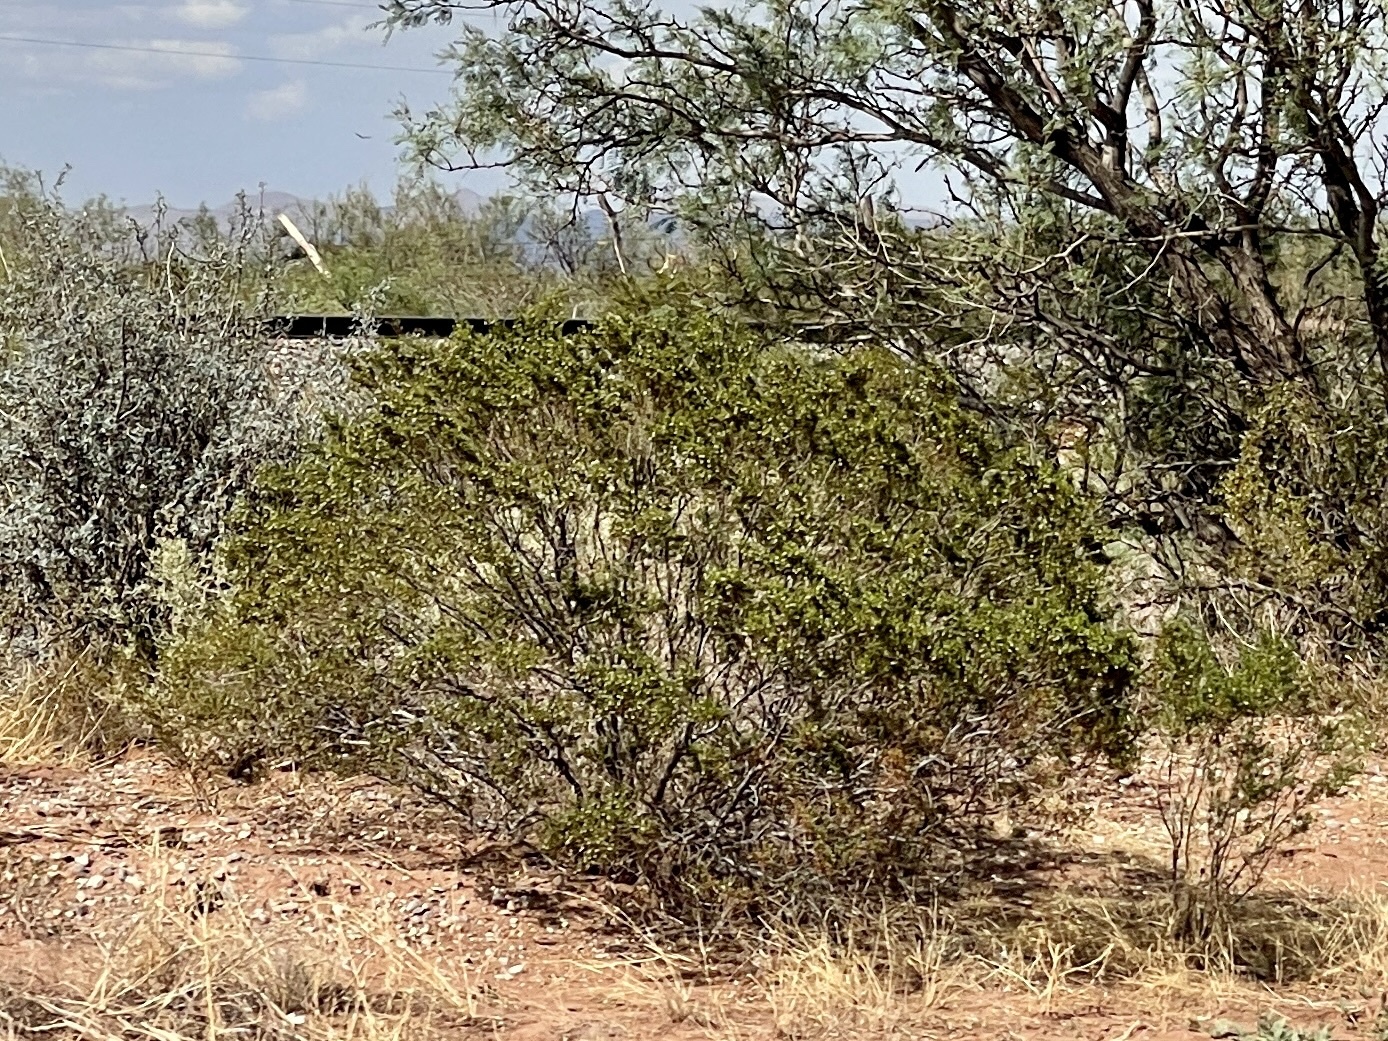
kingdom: Plantae
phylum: Tracheophyta
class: Magnoliopsida
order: Zygophyllales
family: Zygophyllaceae
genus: Larrea
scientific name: Larrea tridentata
